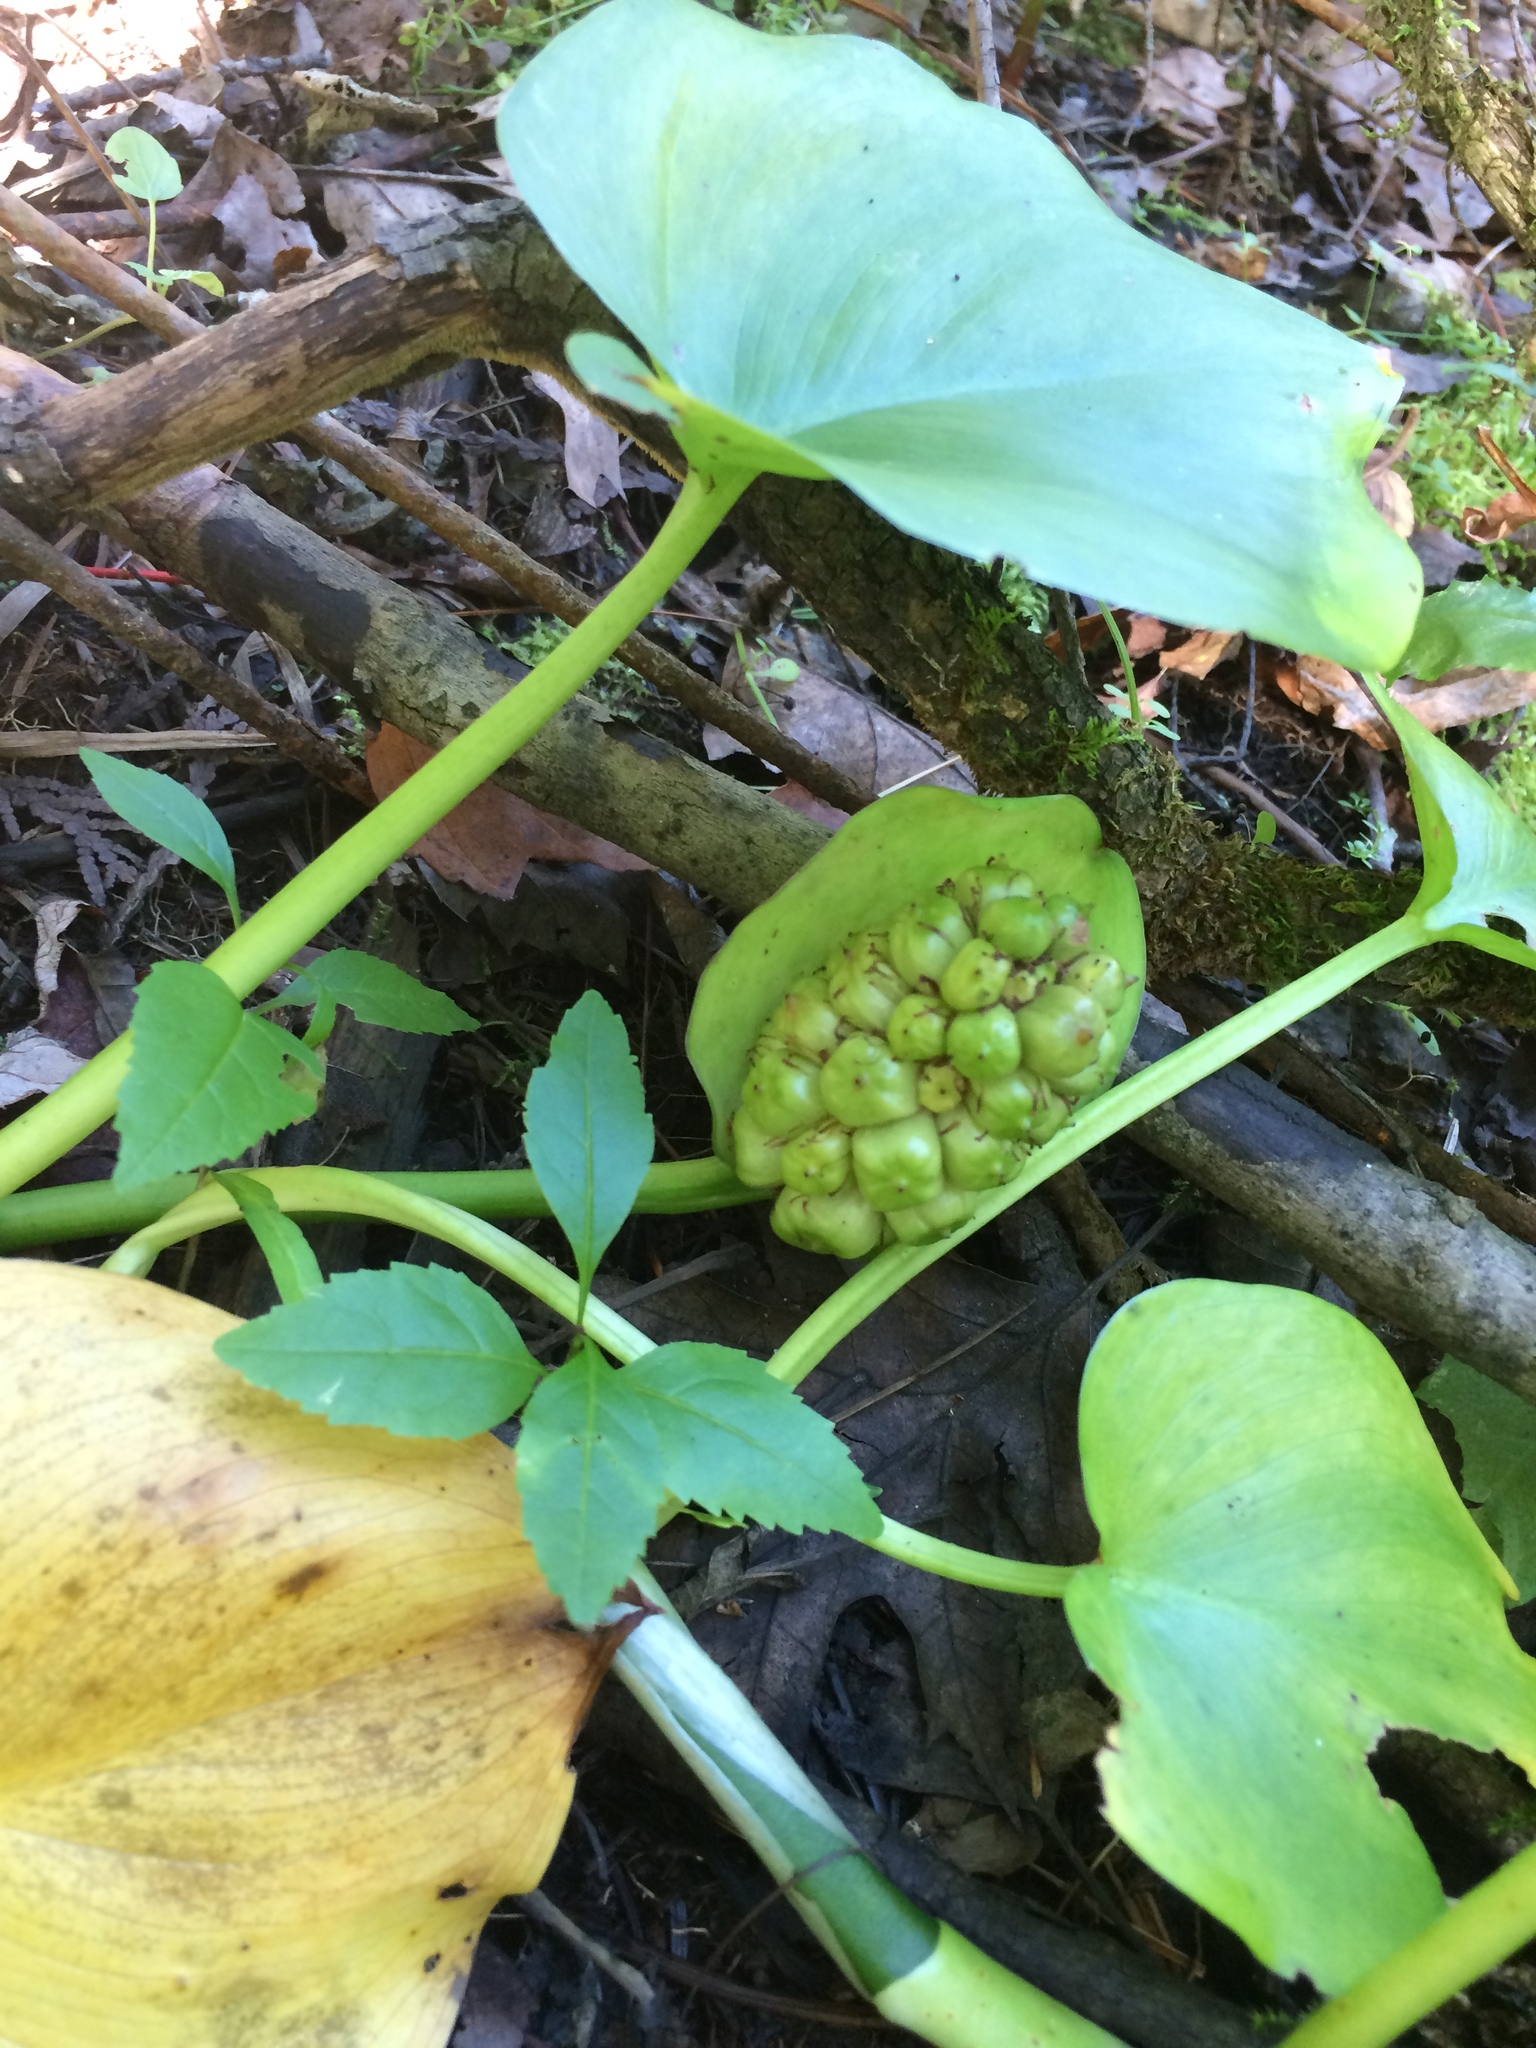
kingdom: Plantae
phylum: Tracheophyta
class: Liliopsida
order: Alismatales
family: Araceae
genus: Calla
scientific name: Calla palustris
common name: Bog arum
